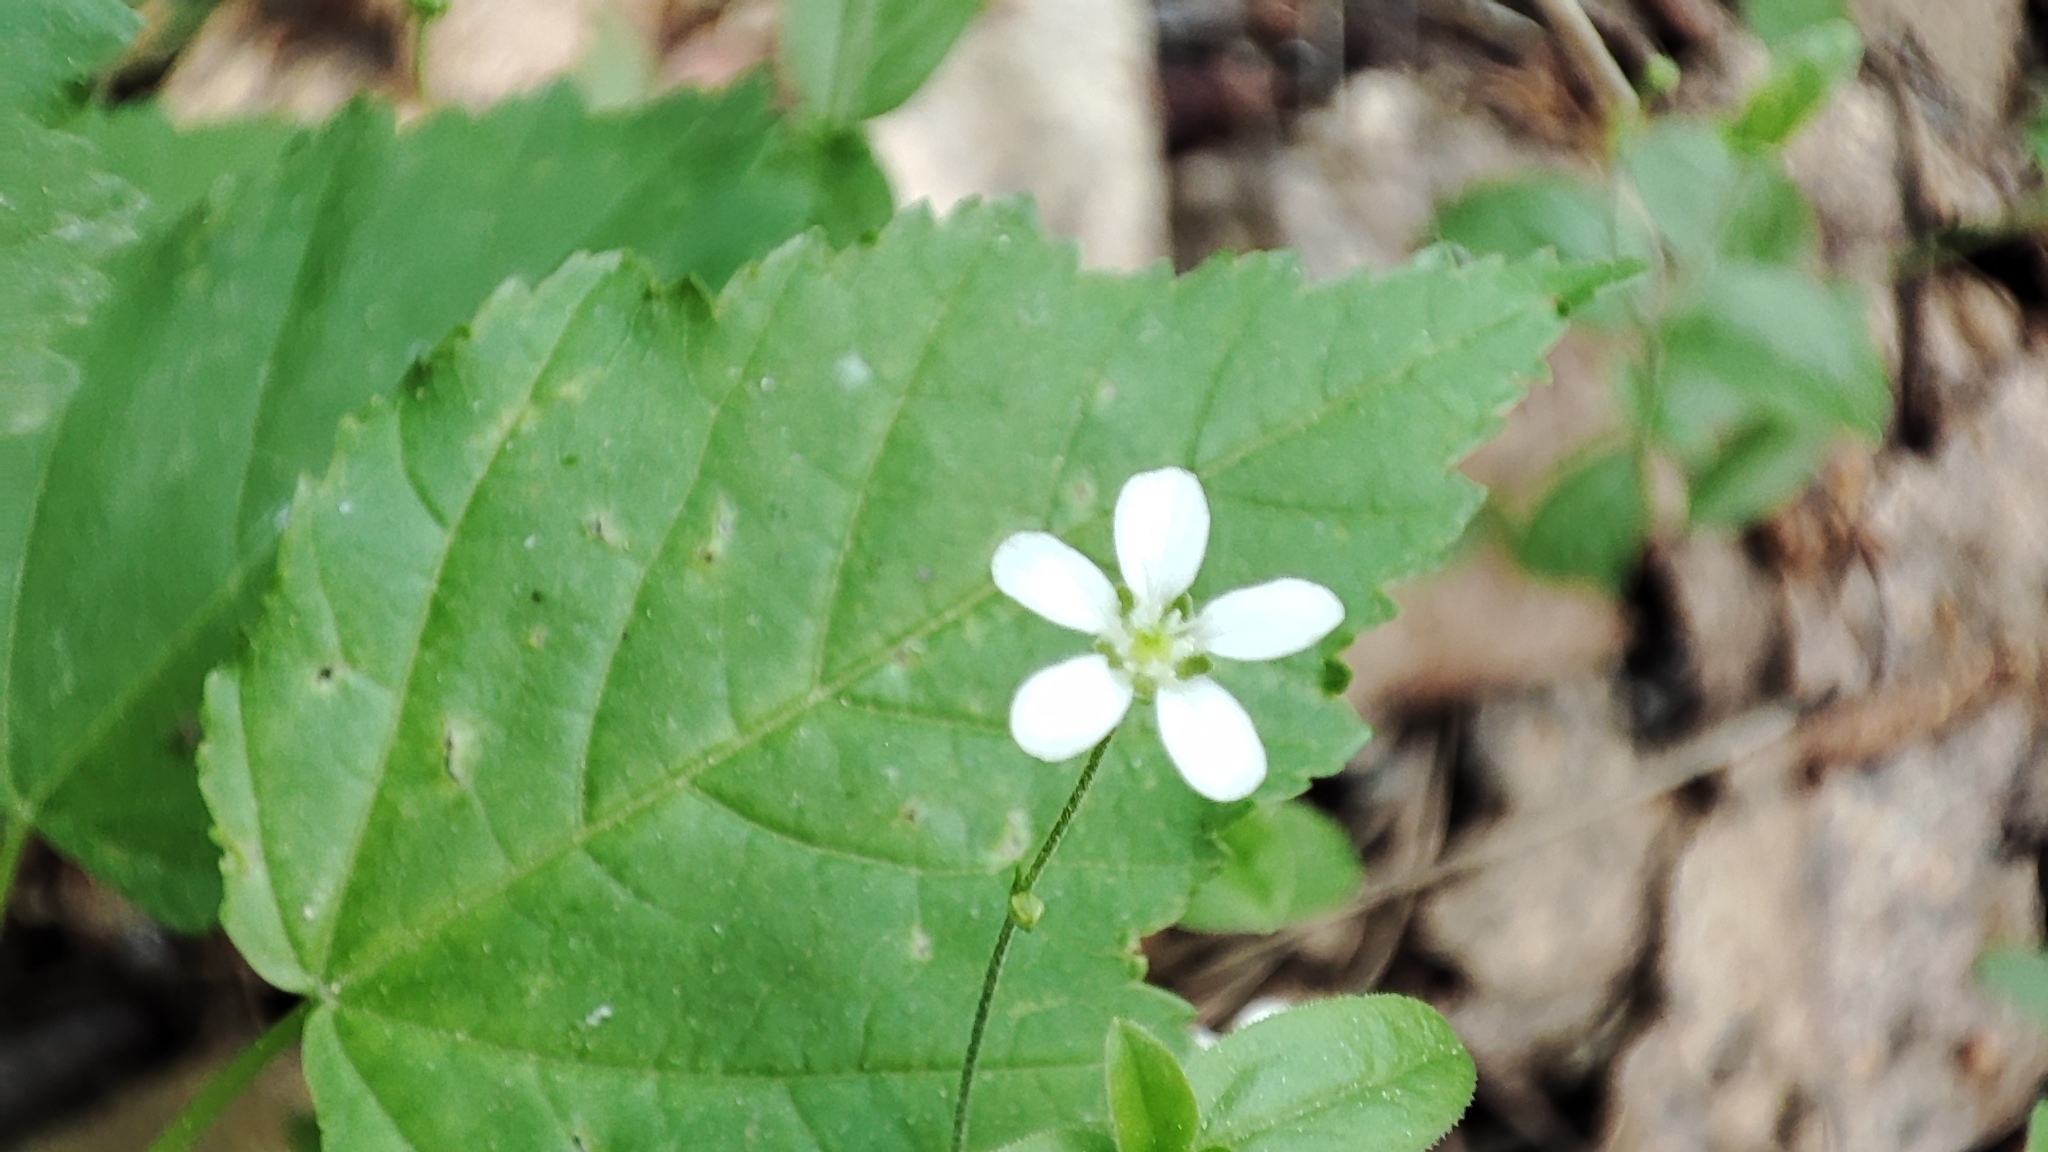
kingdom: Plantae
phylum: Tracheophyta
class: Magnoliopsida
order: Caryophyllales
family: Caryophyllaceae
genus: Moehringia
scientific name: Moehringia lateriflora
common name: Blunt-leaved sandwort
